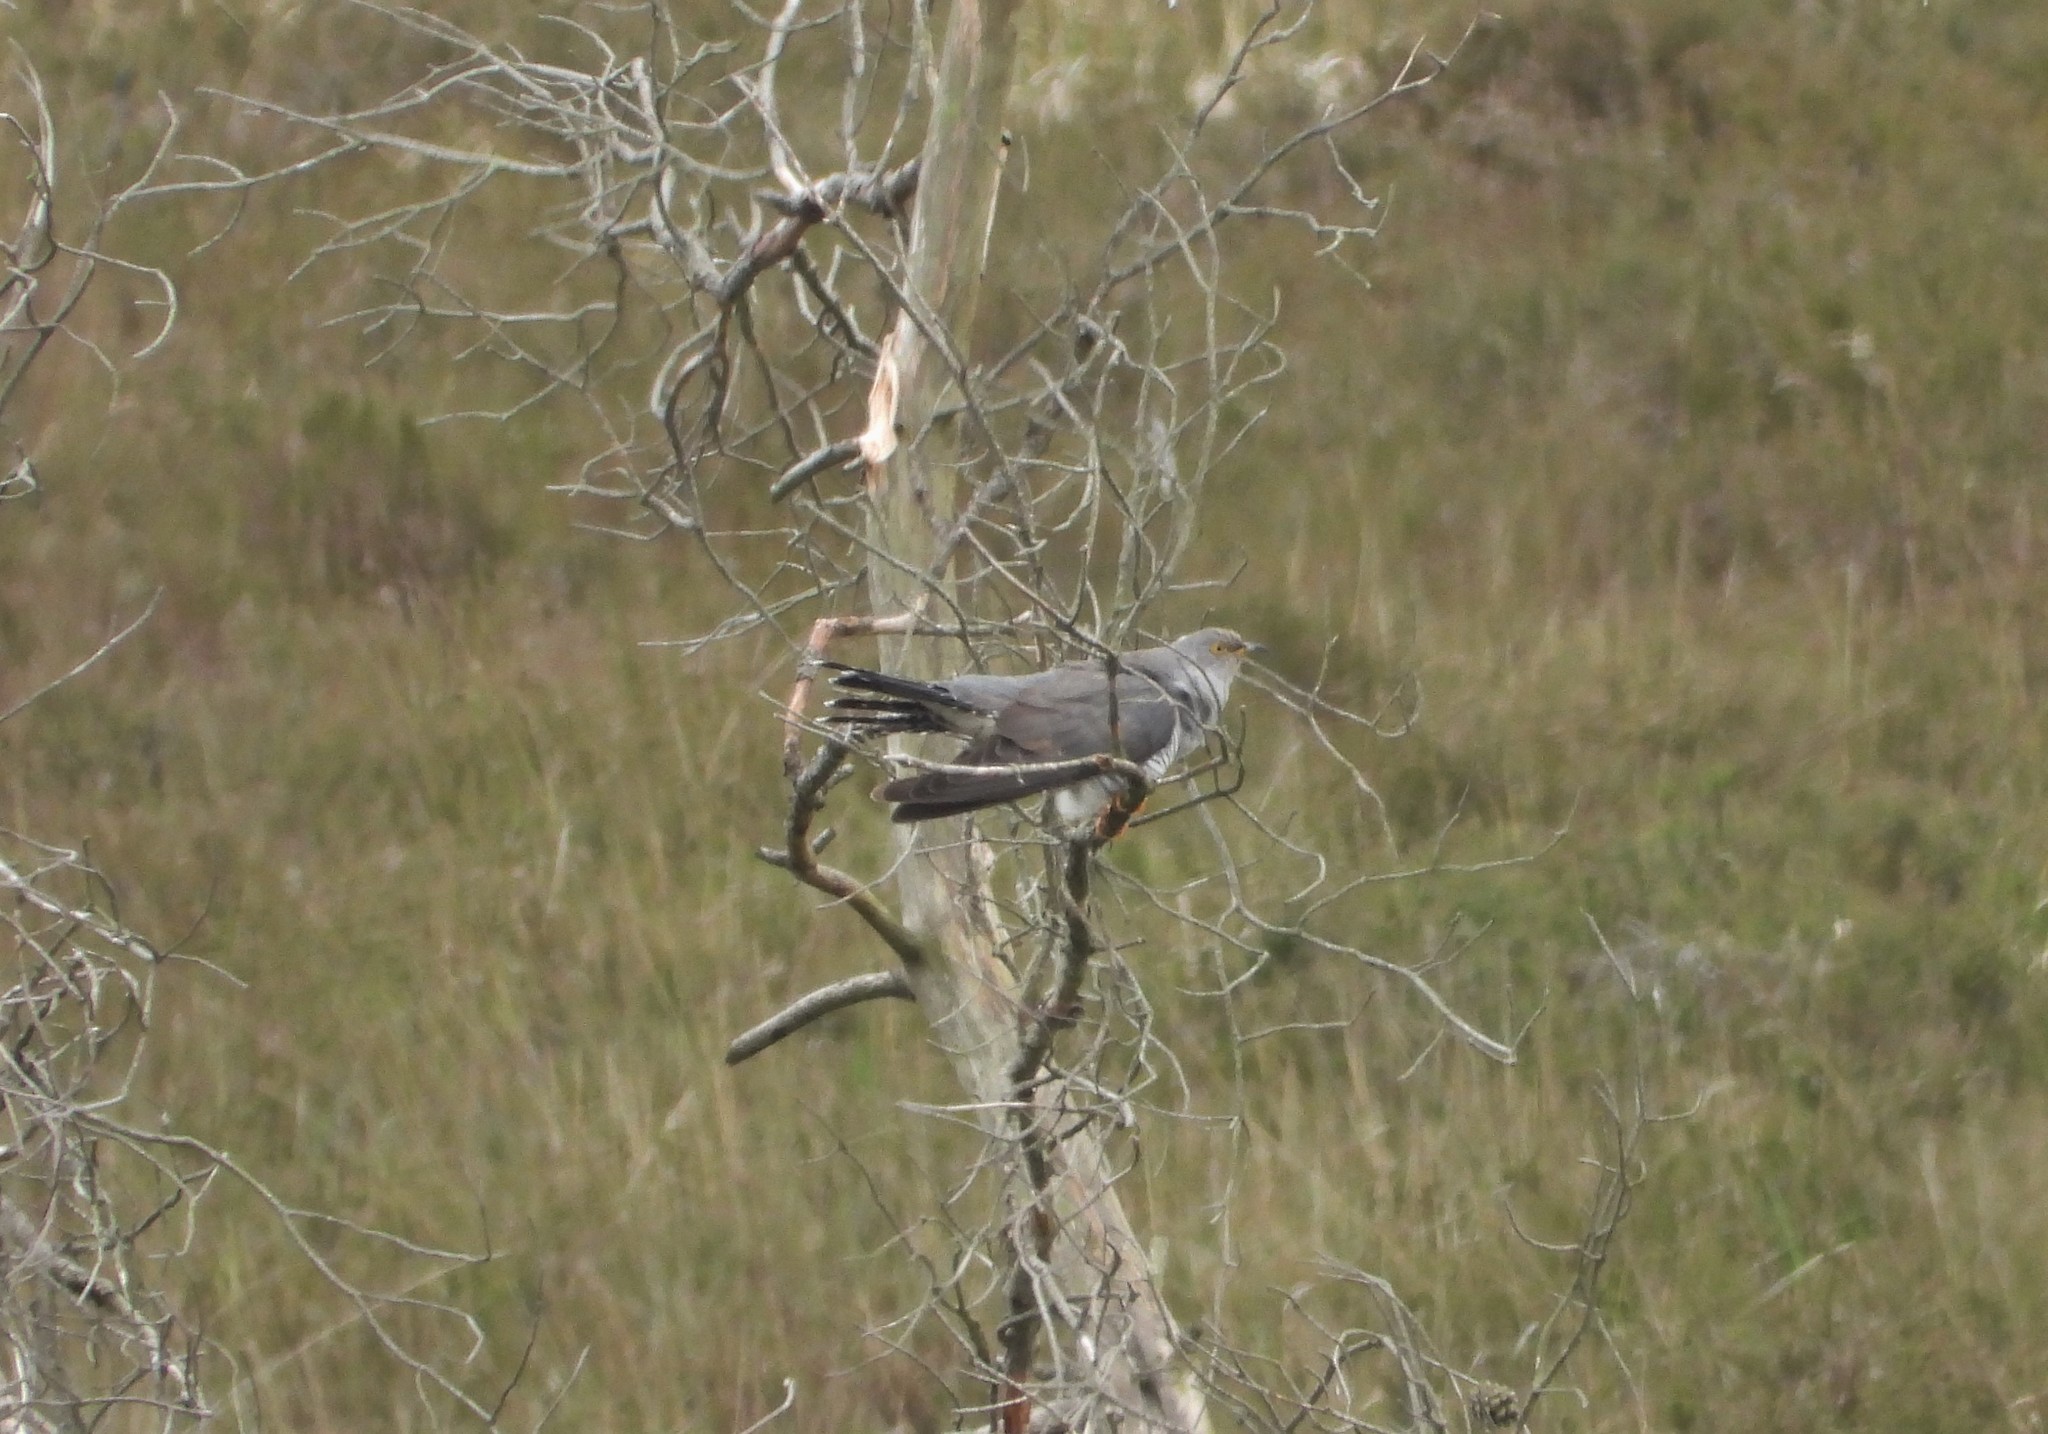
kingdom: Animalia
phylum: Chordata
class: Aves
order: Cuculiformes
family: Cuculidae
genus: Cuculus
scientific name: Cuculus canorus
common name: Common cuckoo
